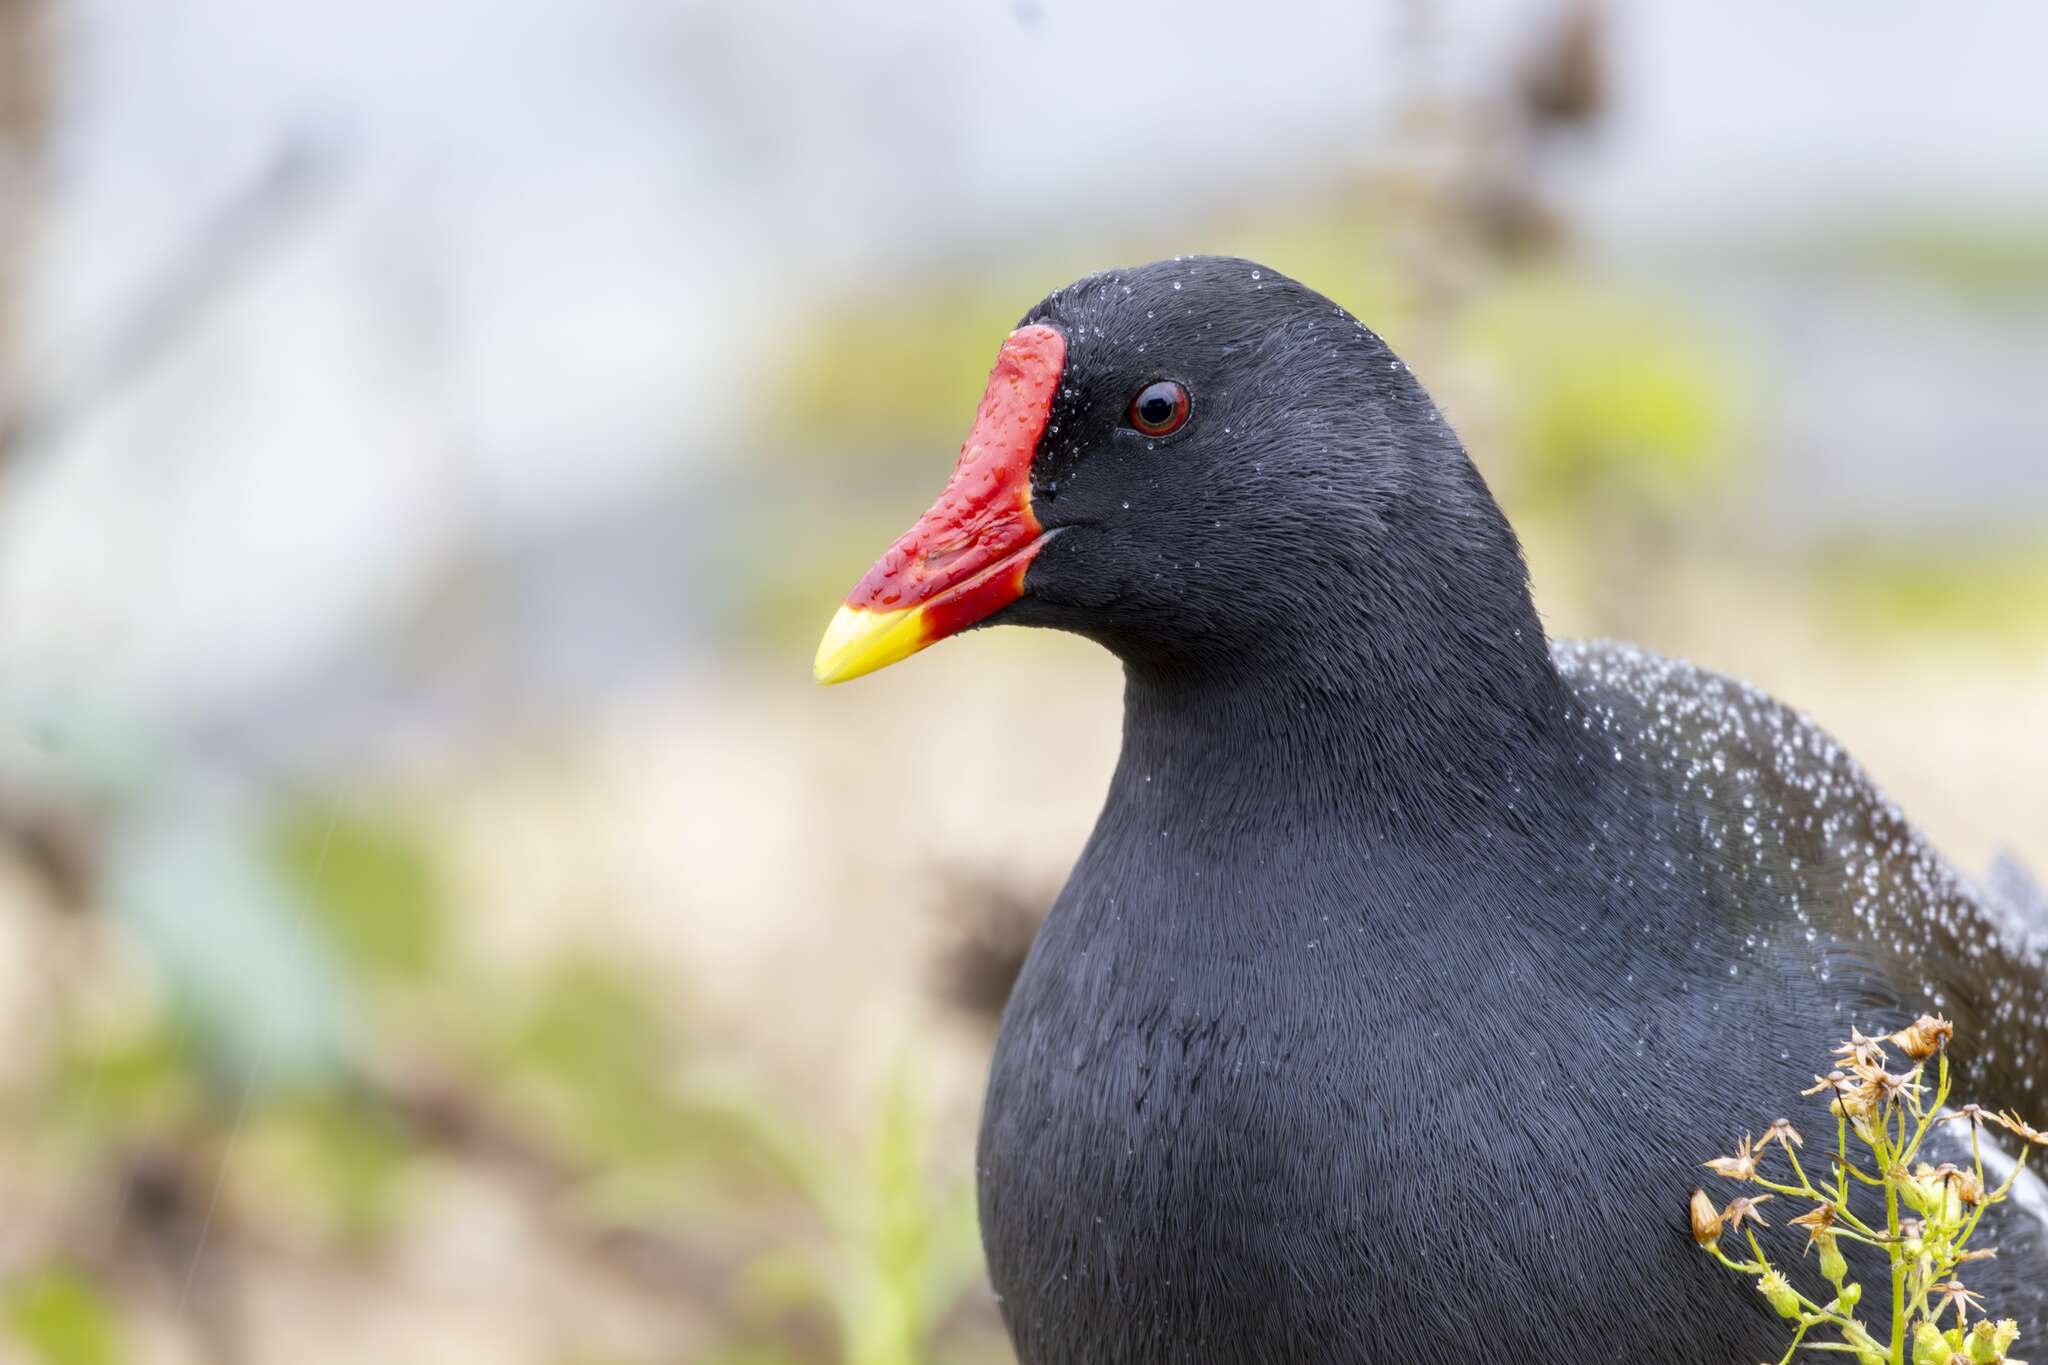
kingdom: Animalia
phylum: Chordata
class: Aves
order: Gruiformes
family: Rallidae
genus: Gallinula
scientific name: Gallinula chloropus
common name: Common moorhen
